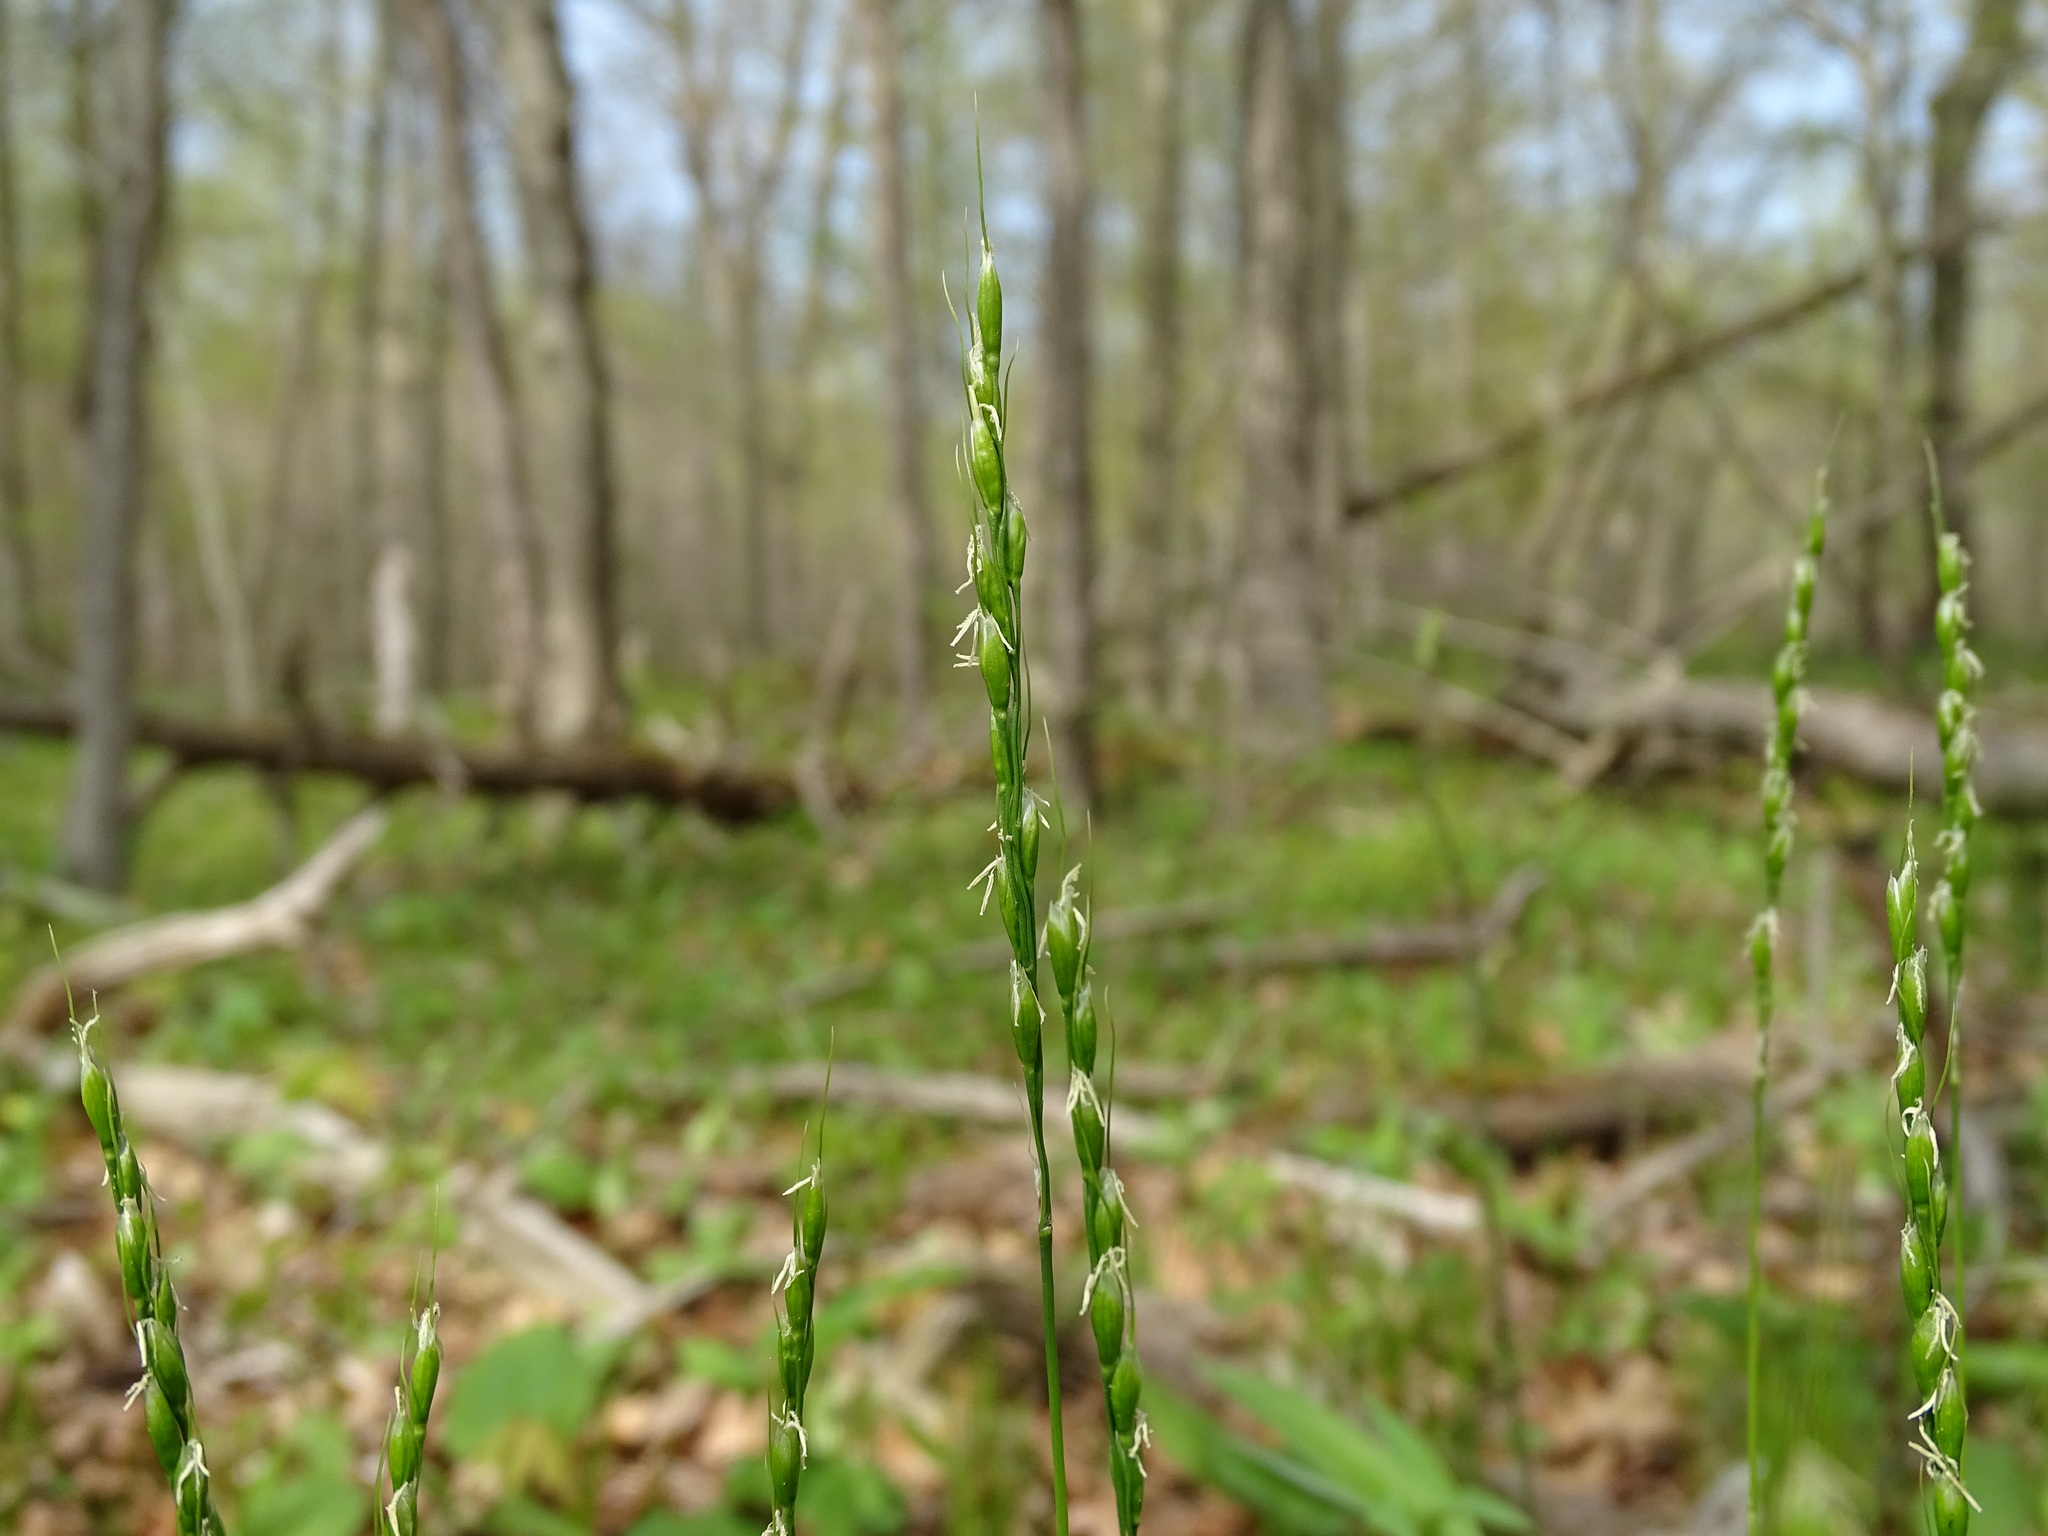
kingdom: Plantae
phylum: Tracheophyta
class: Liliopsida
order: Poales
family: Poaceae
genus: Oryzopsis
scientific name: Oryzopsis asperifolia
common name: Rough-leaved mountain rice
